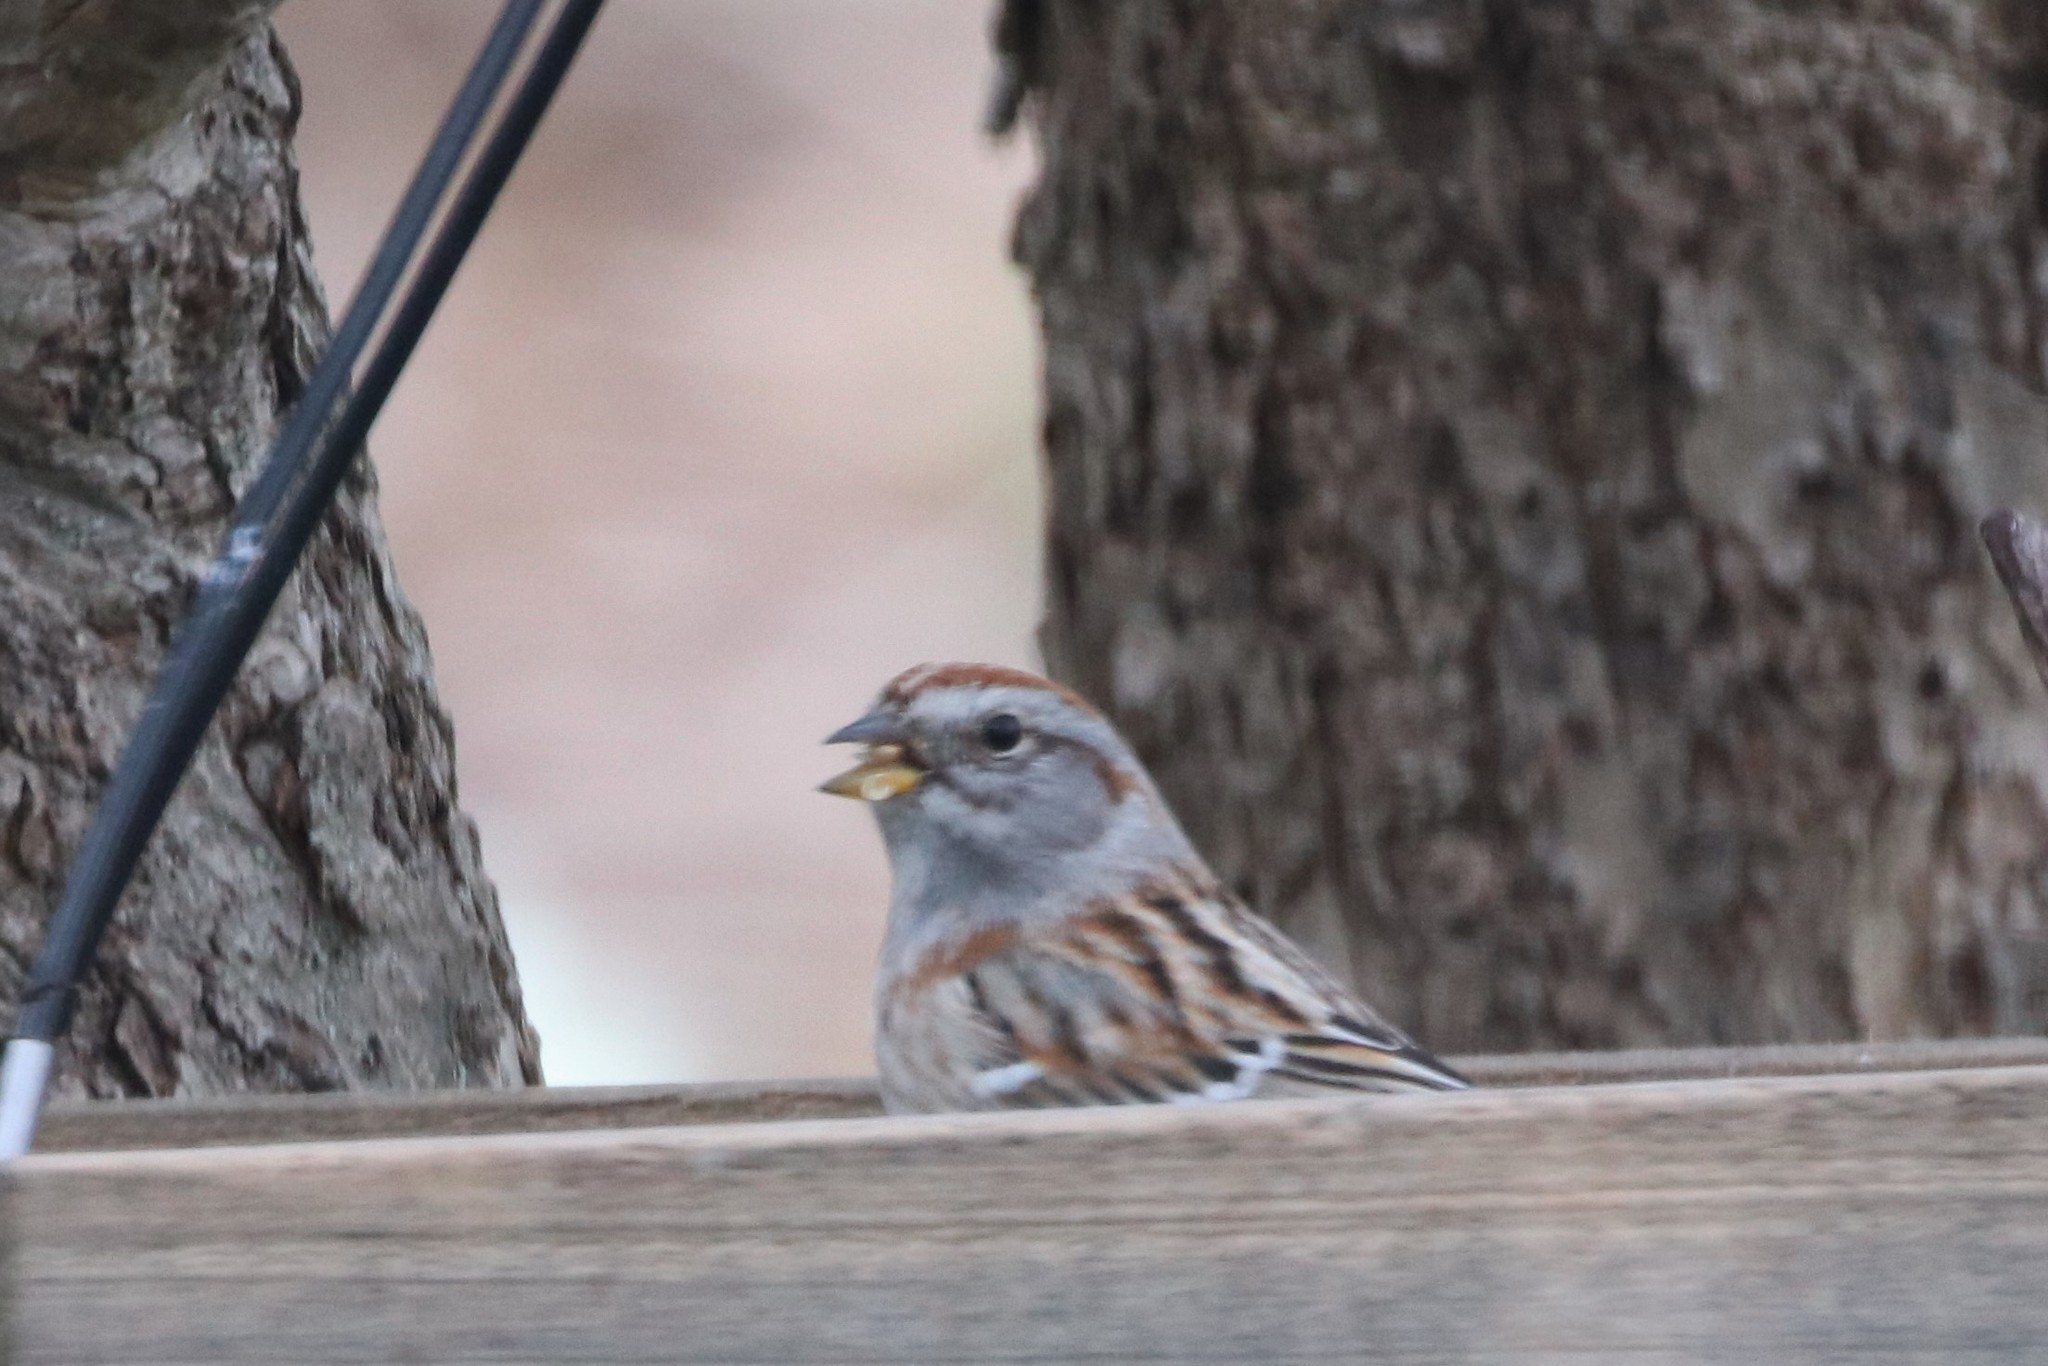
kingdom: Animalia
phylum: Chordata
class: Aves
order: Passeriformes
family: Passerellidae
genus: Spizelloides
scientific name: Spizelloides arborea
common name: American tree sparrow
